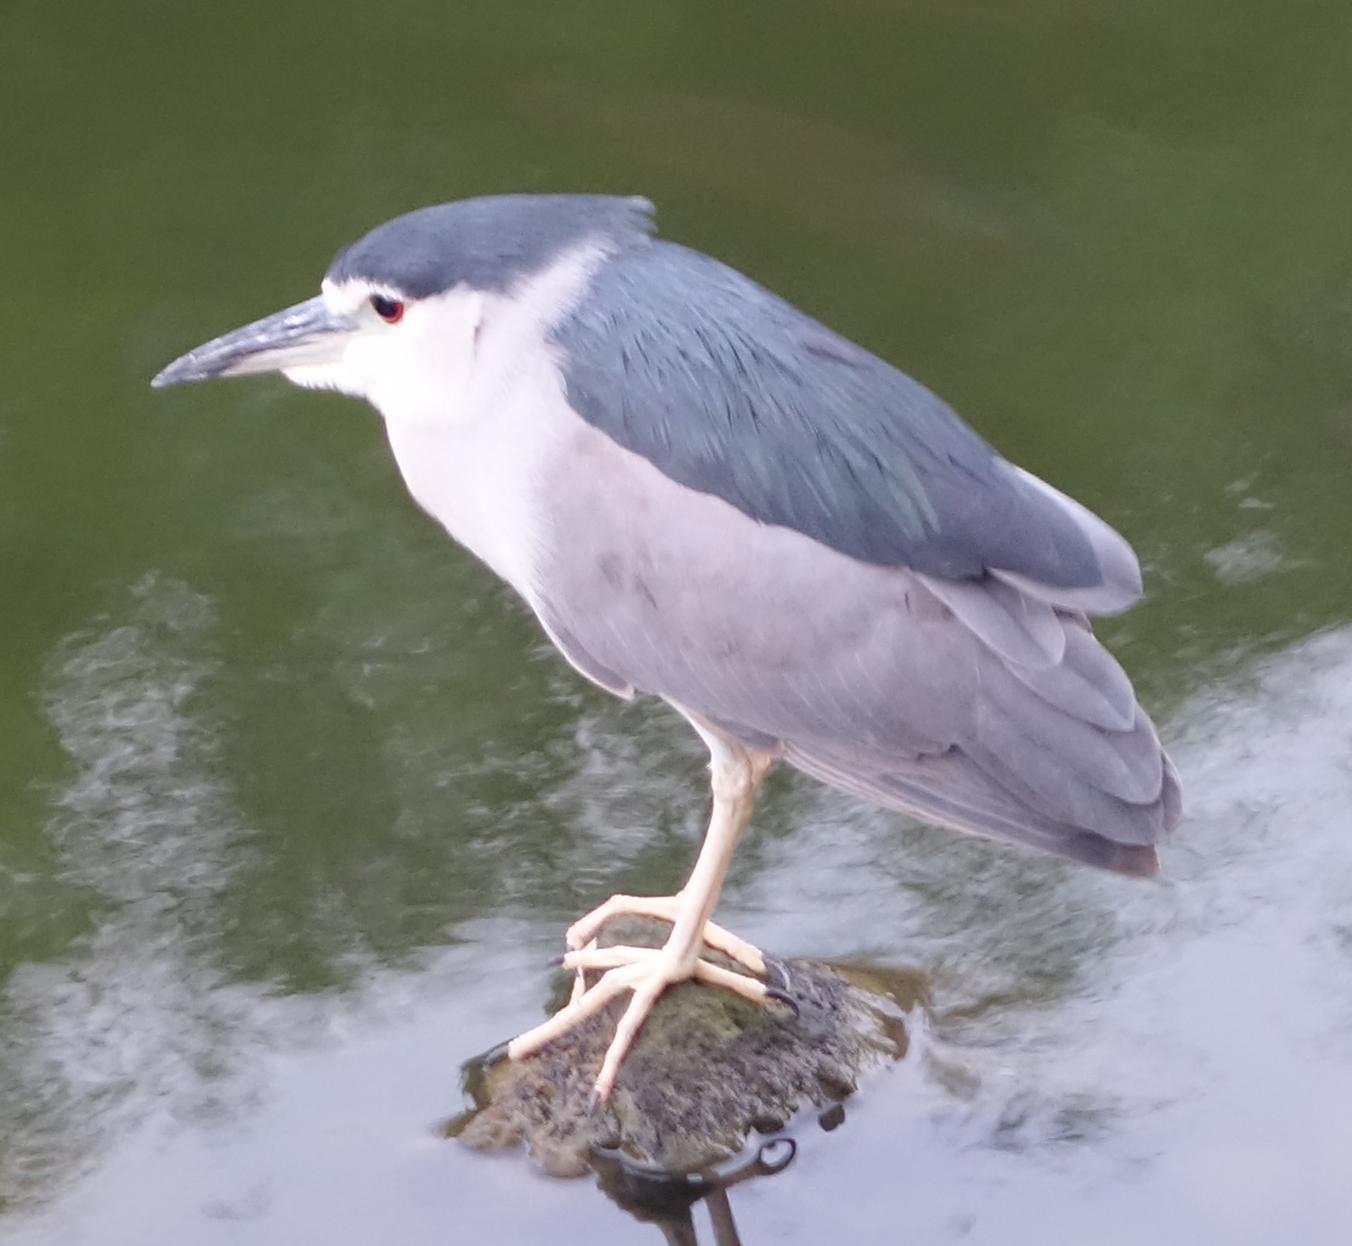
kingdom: Animalia
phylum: Chordata
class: Aves
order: Pelecaniformes
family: Ardeidae
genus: Nycticorax
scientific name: Nycticorax nycticorax
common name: Black-crowned night heron
